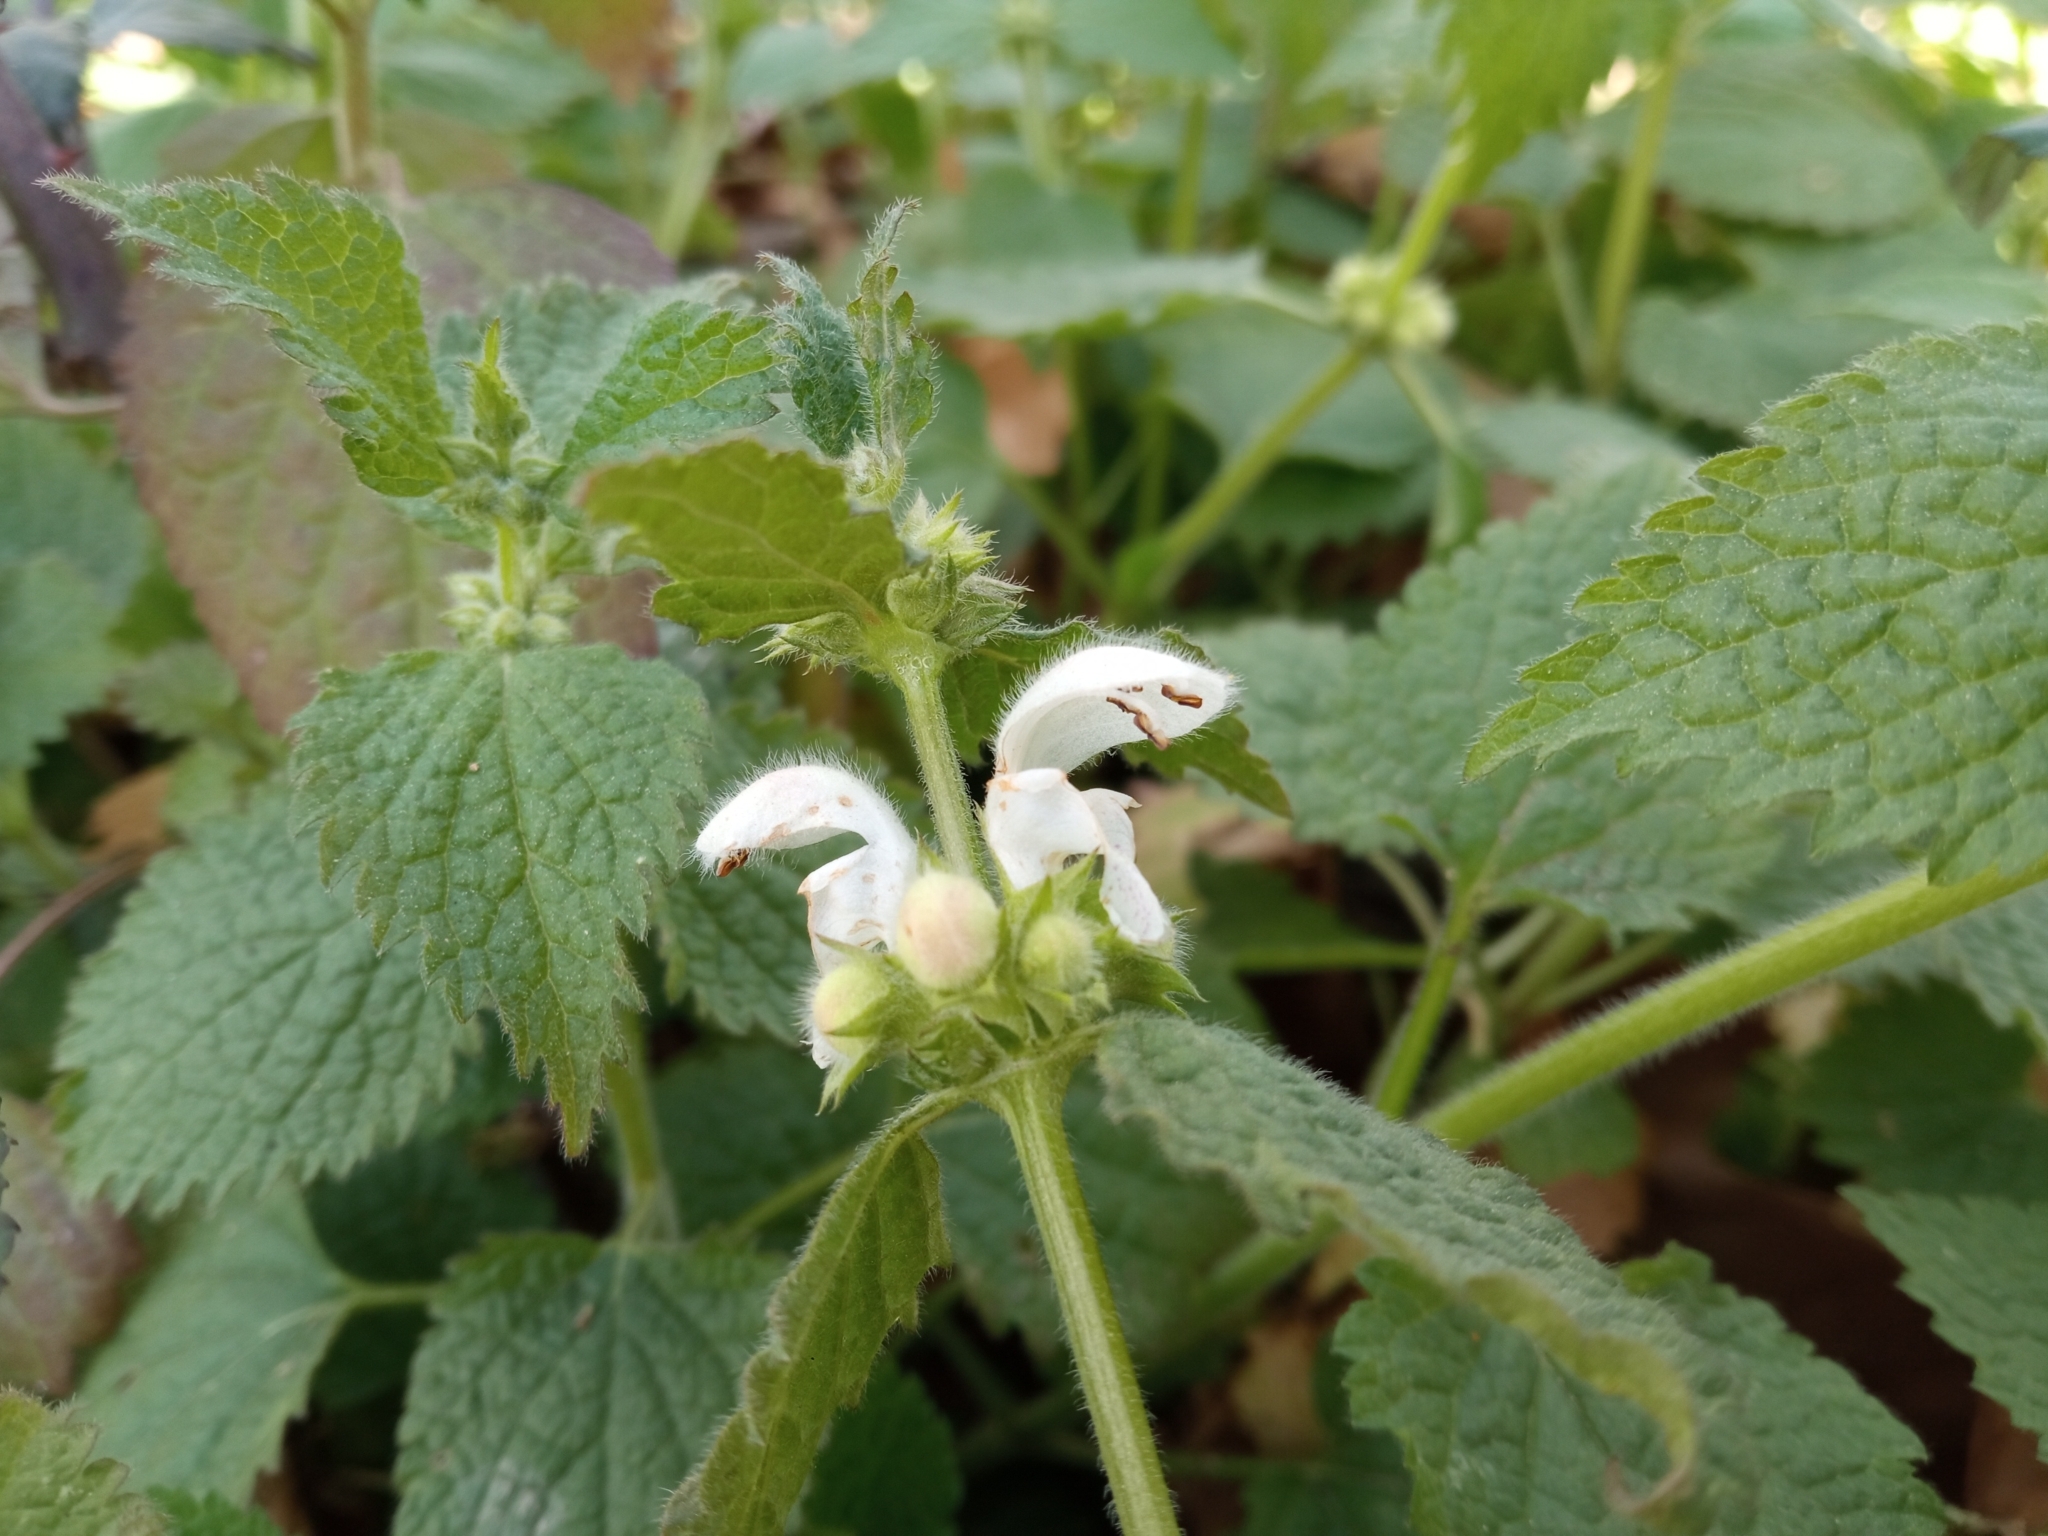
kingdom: Plantae
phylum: Tracheophyta
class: Magnoliopsida
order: Lamiales
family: Lamiaceae
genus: Lamium
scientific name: Lamium flexuosum
